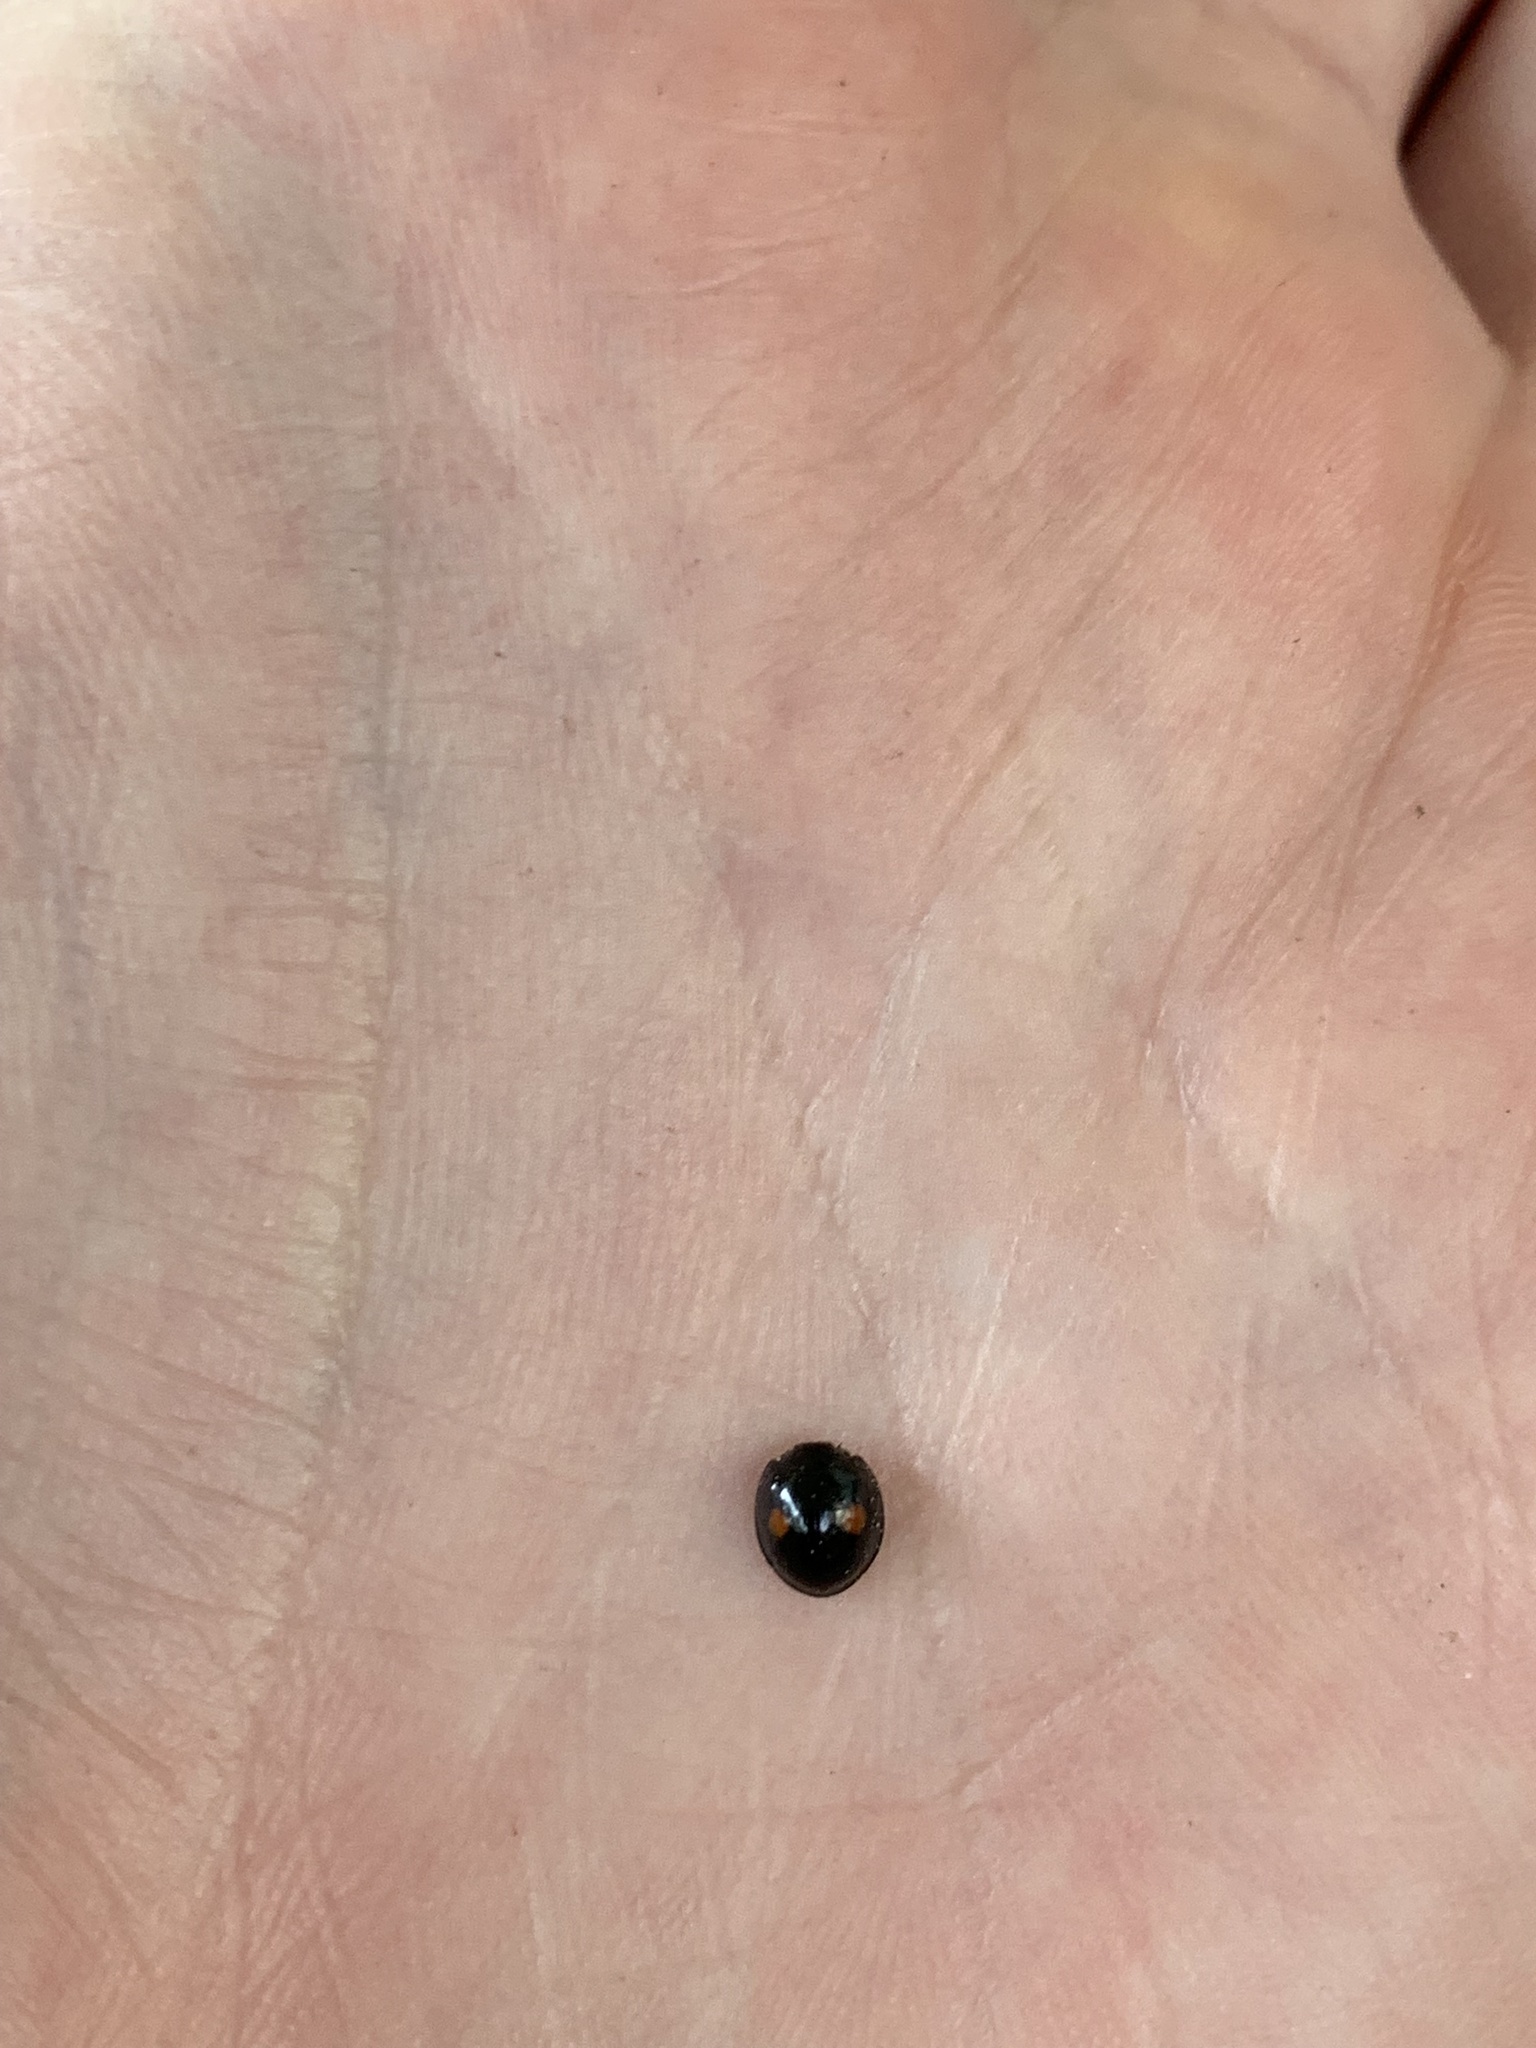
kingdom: Animalia
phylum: Arthropoda
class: Insecta
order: Coleoptera
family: Coccinellidae
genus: Chilocorus
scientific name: Chilocorus stigma
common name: Twicestabbed lady beetle
